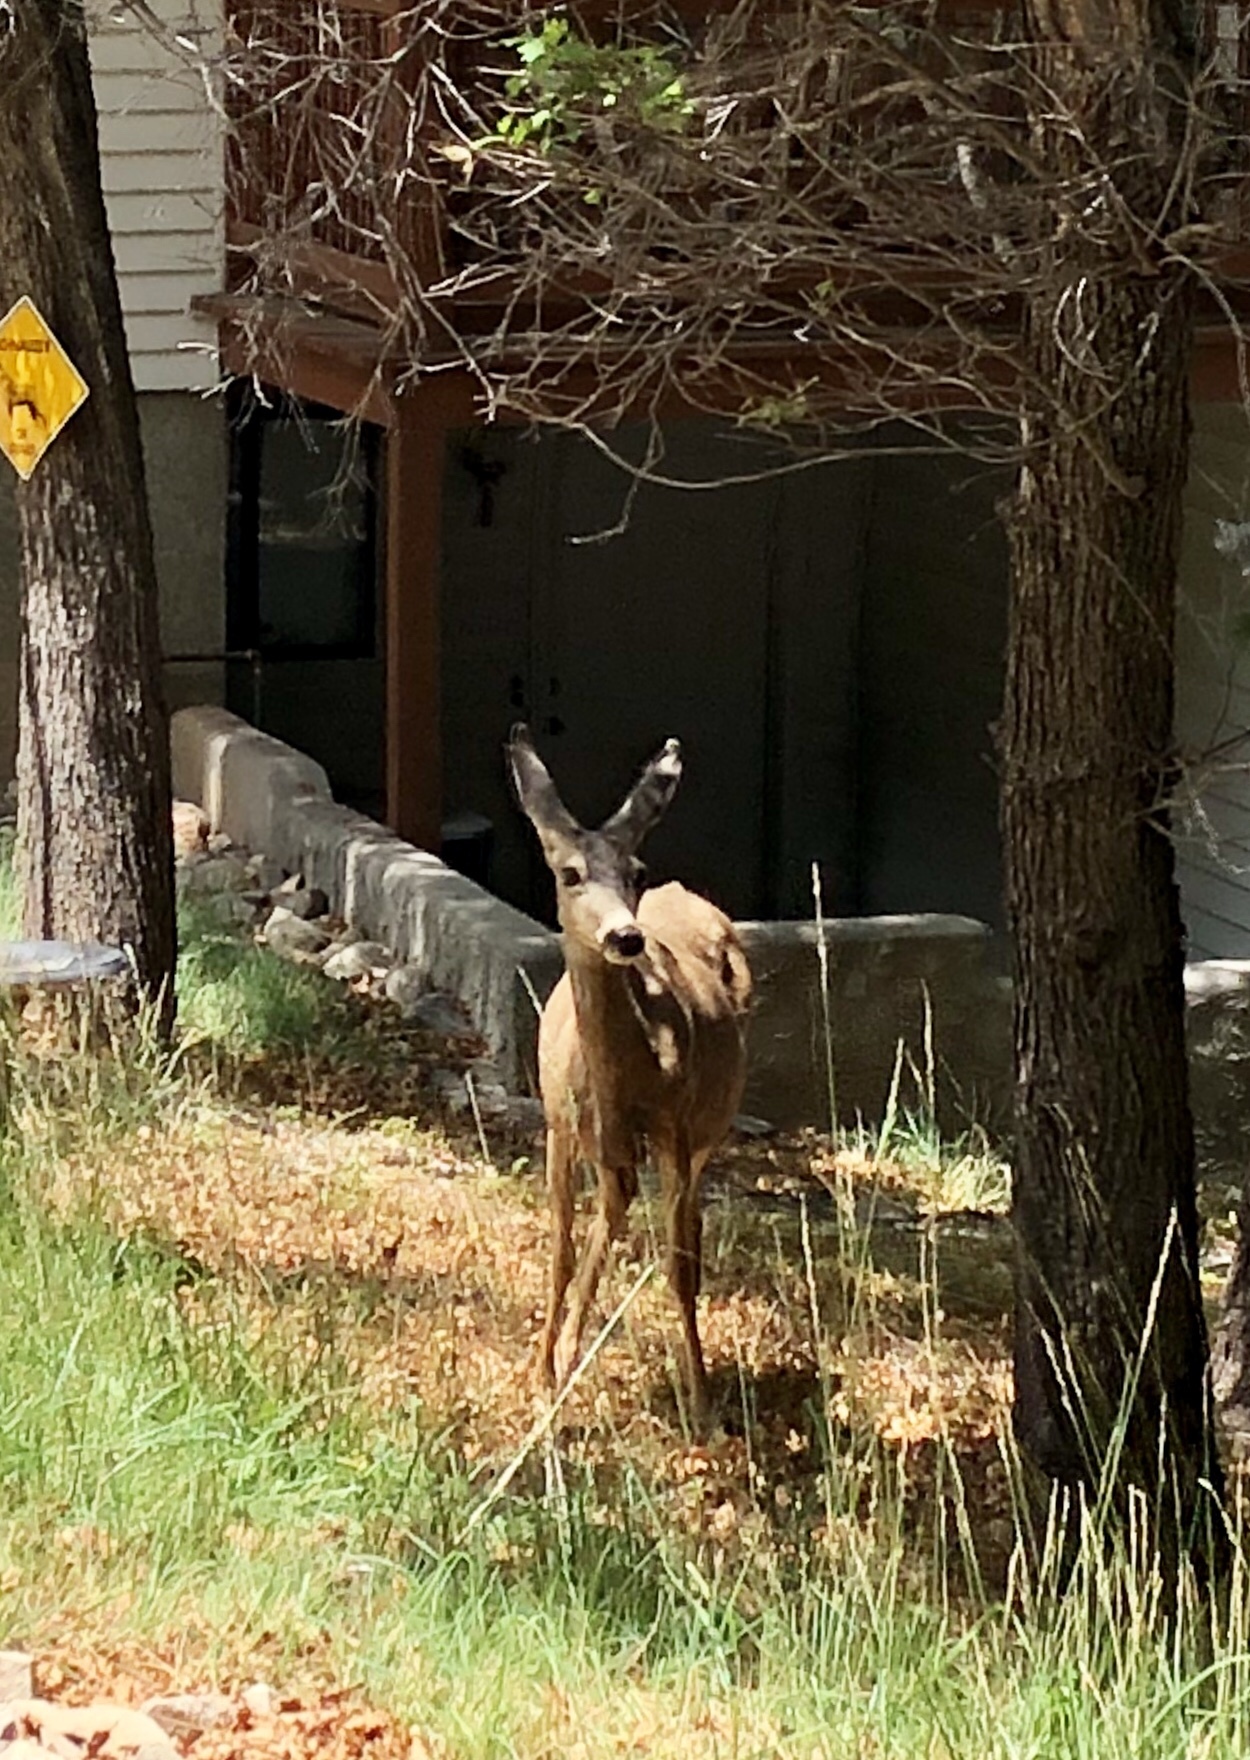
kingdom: Animalia
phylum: Chordata
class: Mammalia
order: Artiodactyla
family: Cervidae
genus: Odocoileus
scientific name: Odocoileus hemionus
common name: Mule deer
